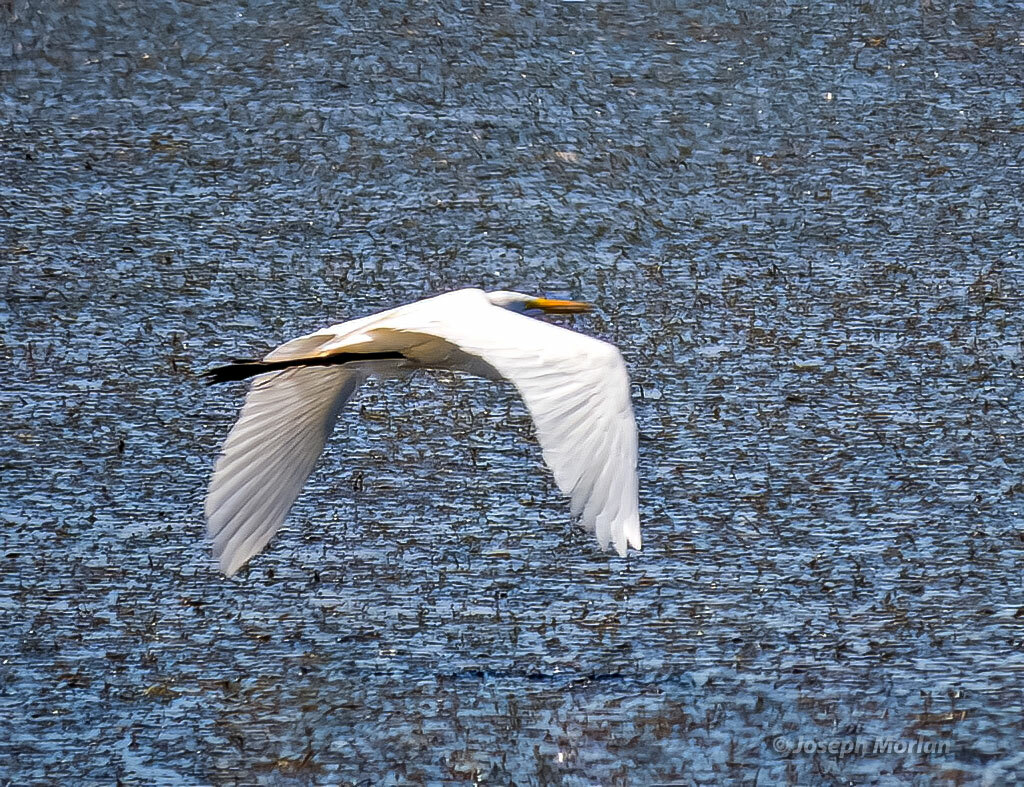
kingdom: Animalia
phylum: Chordata
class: Aves
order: Pelecaniformes
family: Ardeidae
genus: Ardea
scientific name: Ardea alba
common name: Great egret
